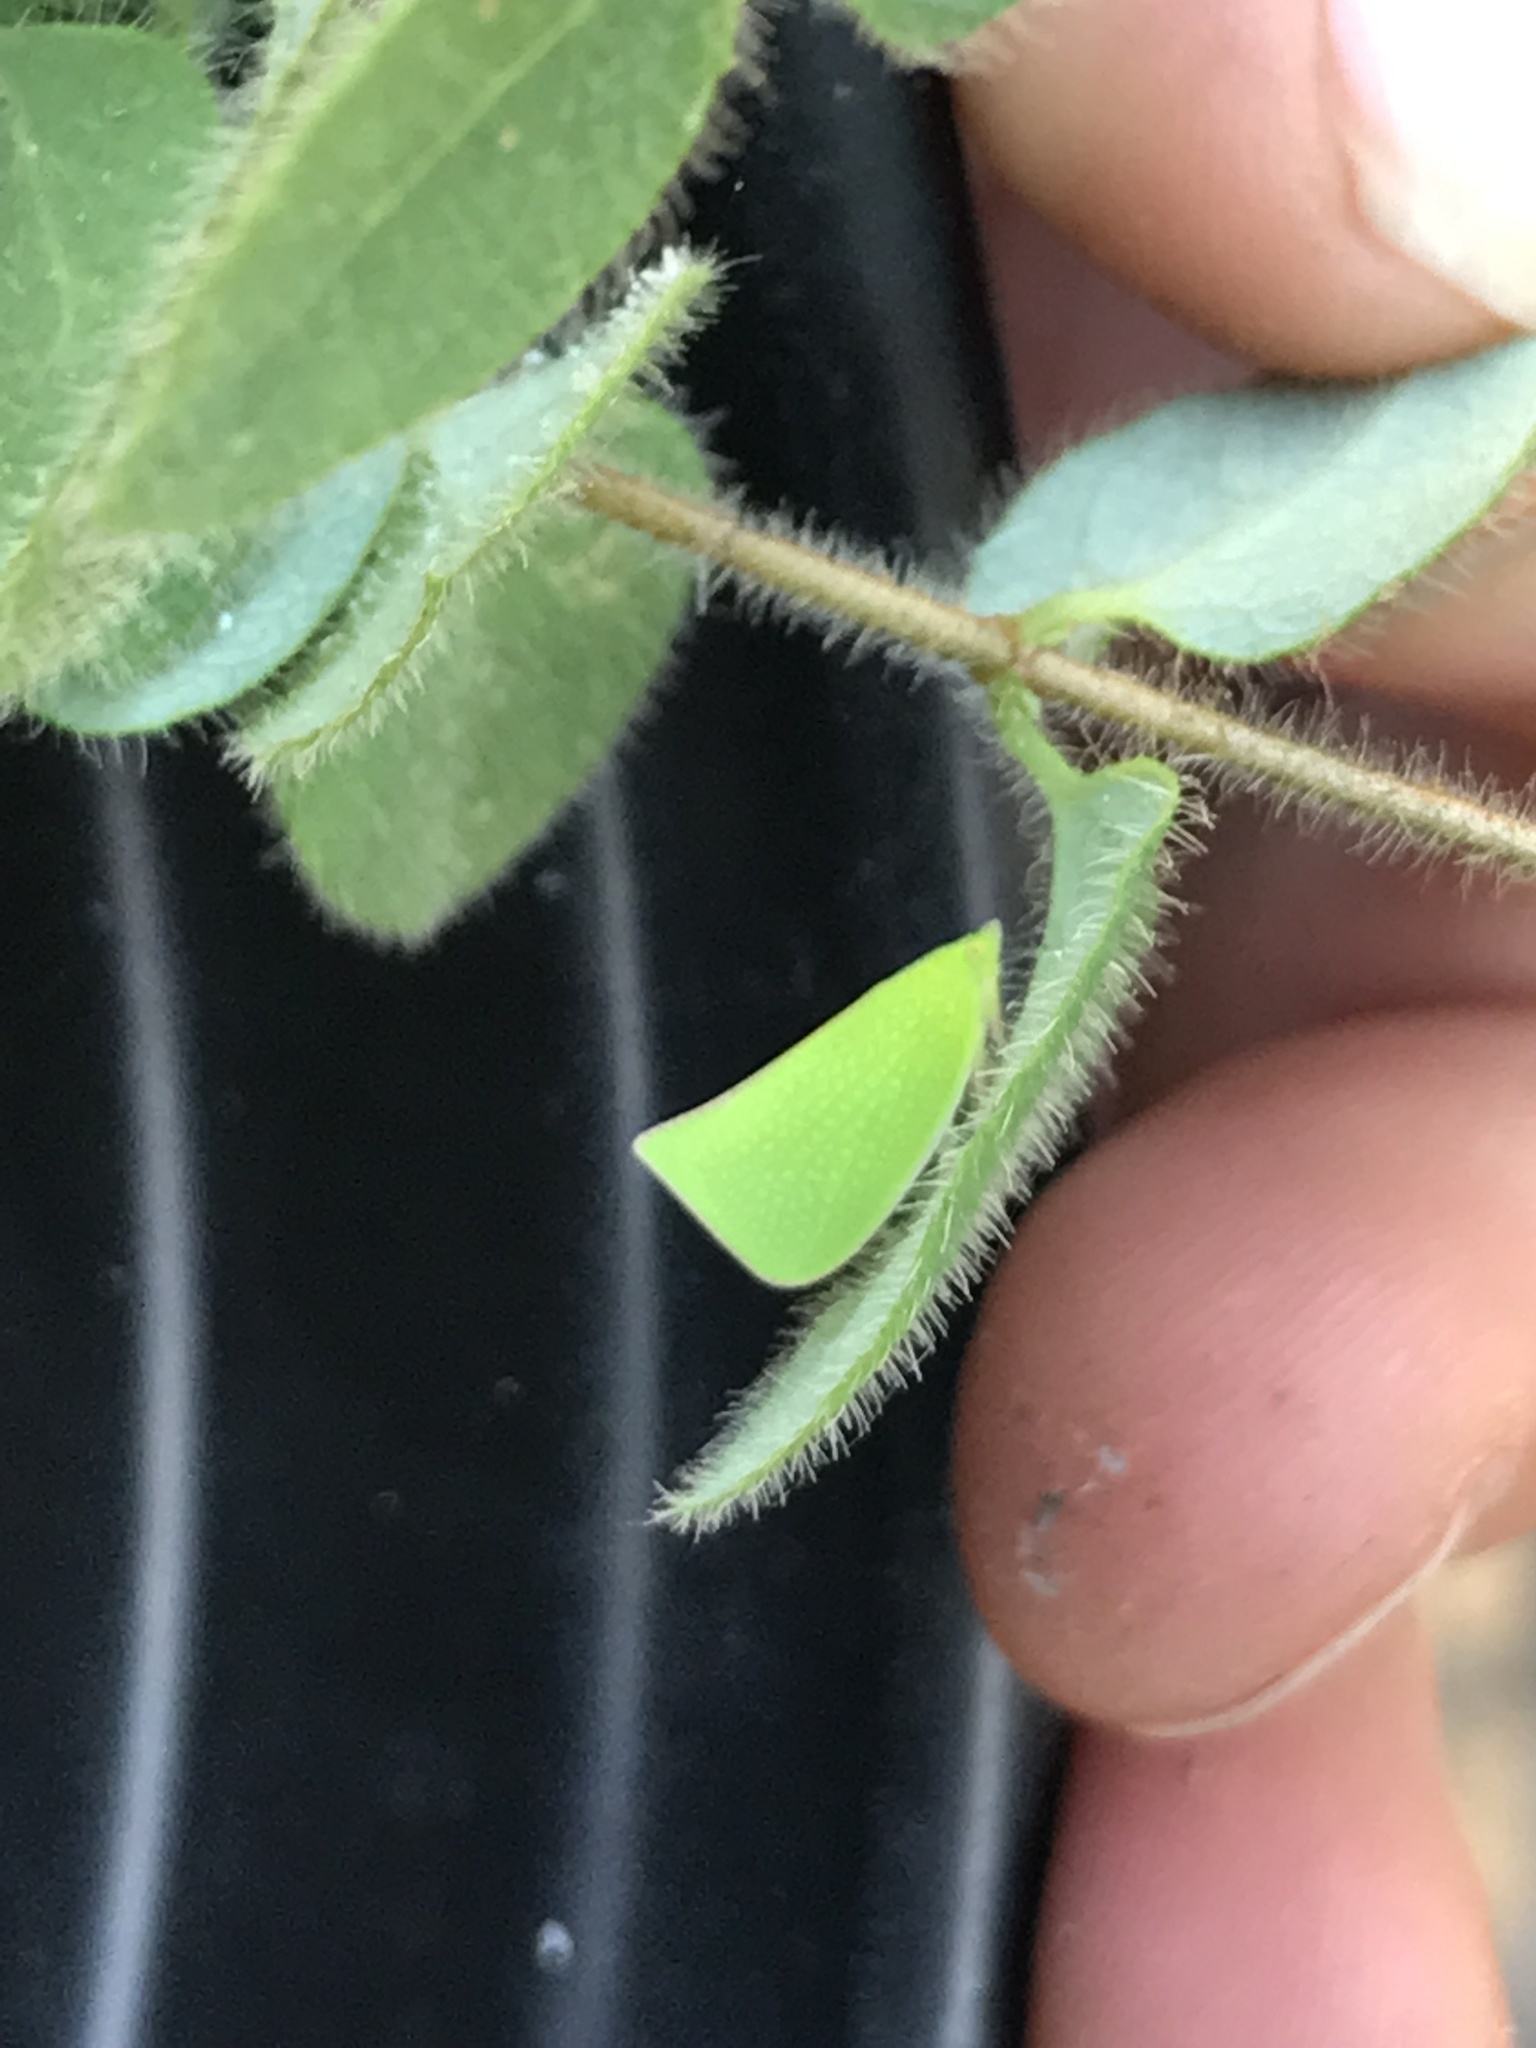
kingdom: Animalia
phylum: Arthropoda
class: Insecta
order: Hemiptera
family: Flatidae
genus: Siphanta
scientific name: Siphanta acuta
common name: Torpedo bug
